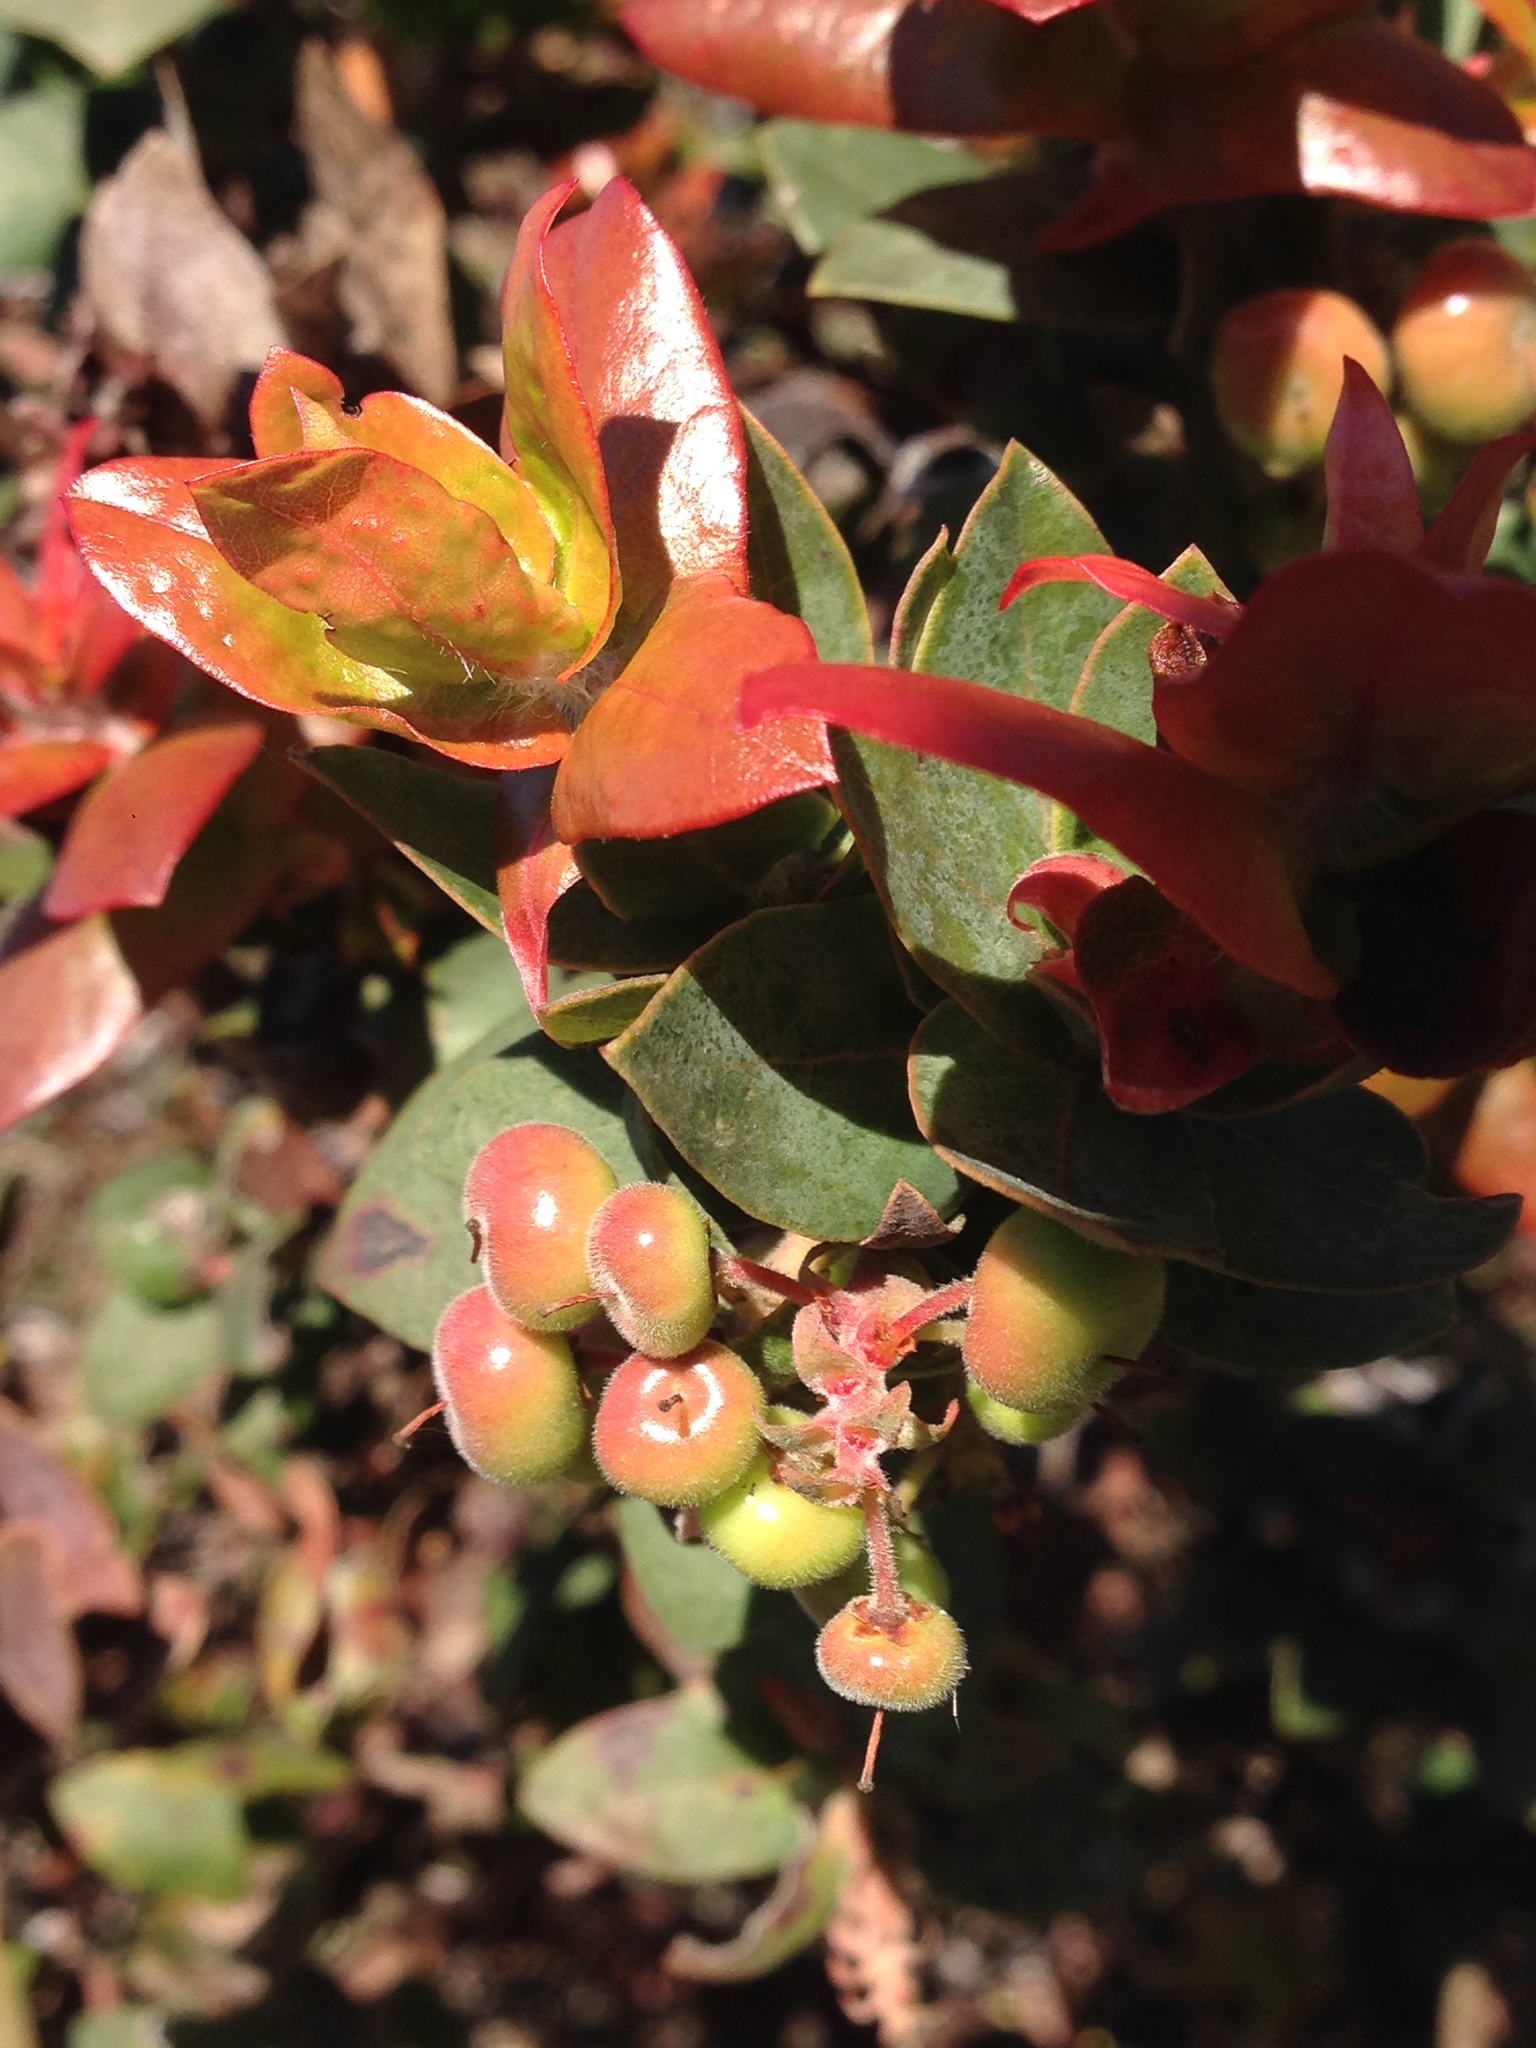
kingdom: Plantae
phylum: Tracheophyta
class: Magnoliopsida
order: Ericales
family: Ericaceae
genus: Arctostaphylos
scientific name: Arctostaphylos pajaroensis
